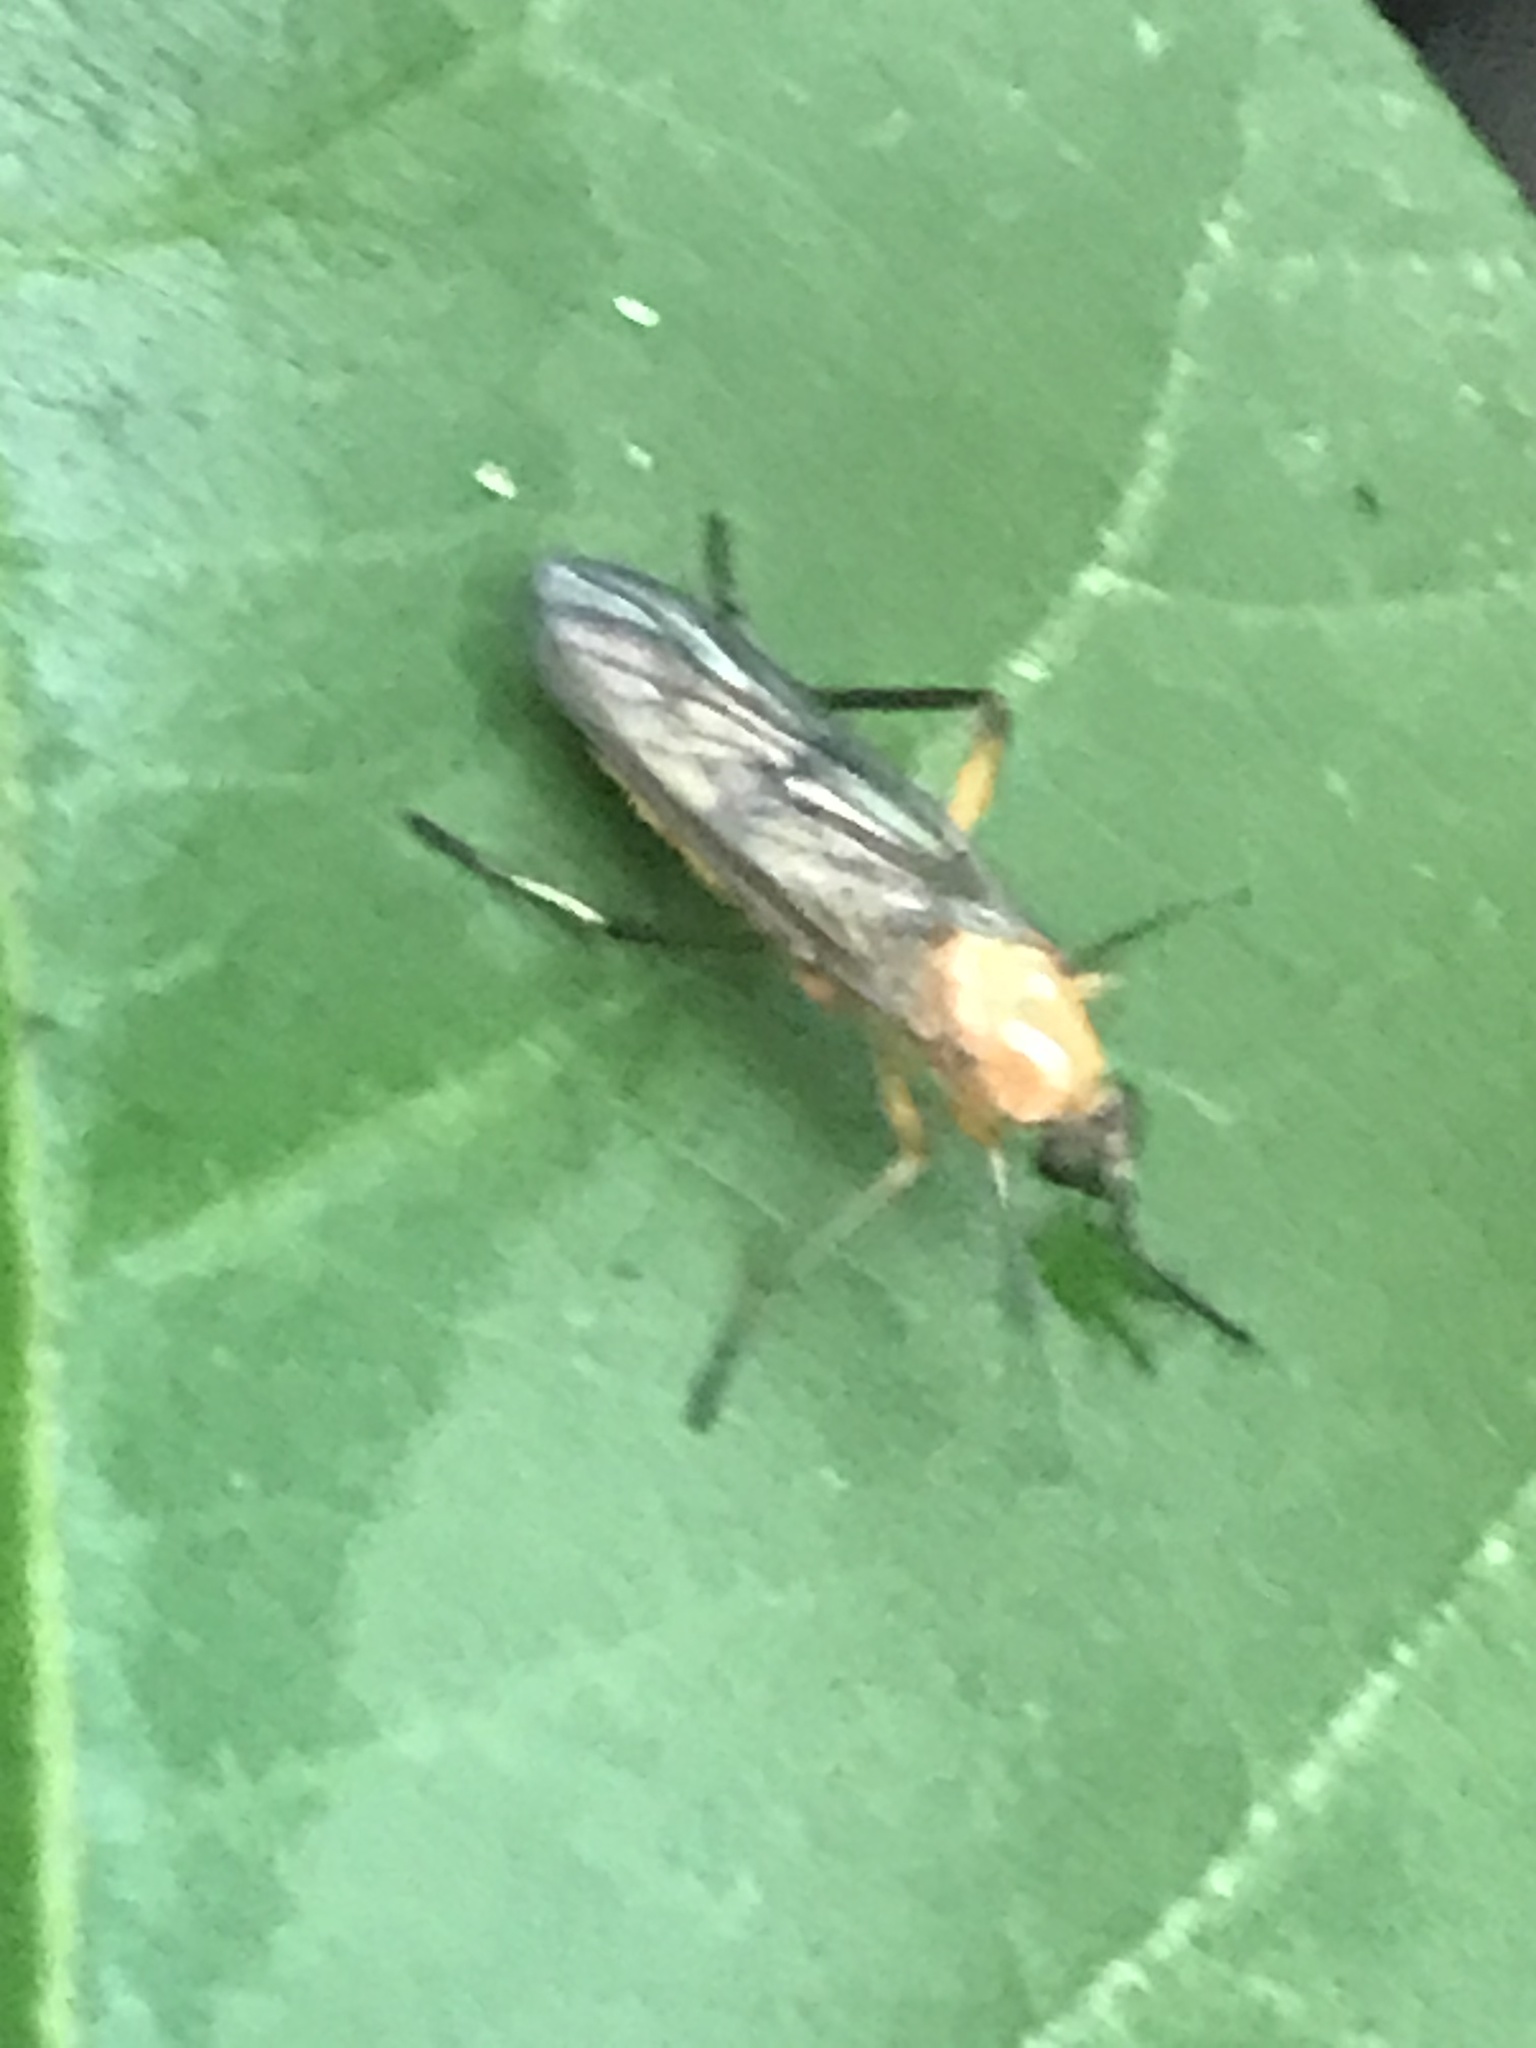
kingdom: Animalia
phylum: Arthropoda
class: Insecta
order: Diptera
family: Xylophagidae
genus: Dialysis
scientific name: Dialysis rufithorax
